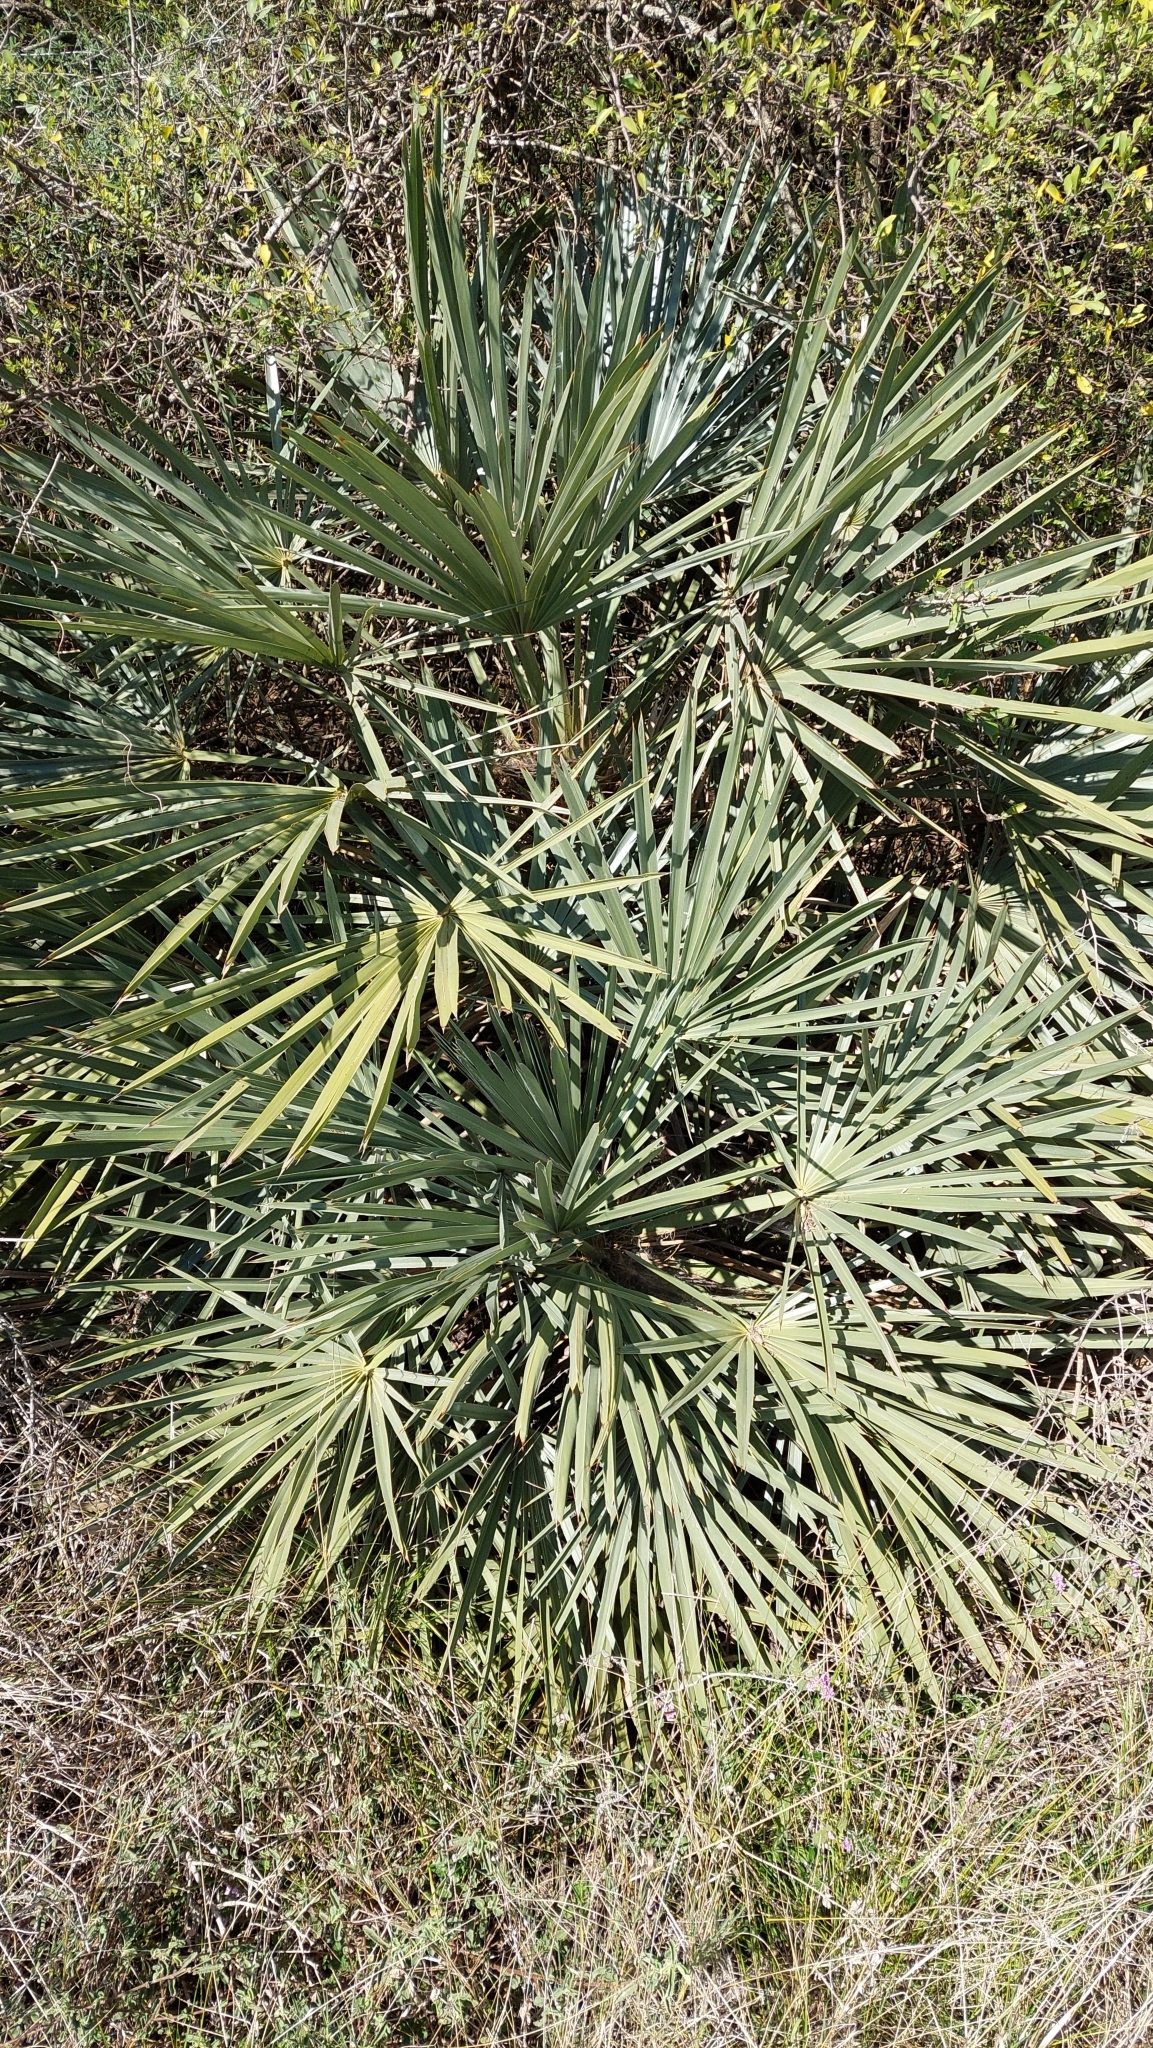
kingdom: Plantae
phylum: Tracheophyta
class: Liliopsida
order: Arecales
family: Arecaceae
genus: Trithrinax
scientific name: Trithrinax campestris
